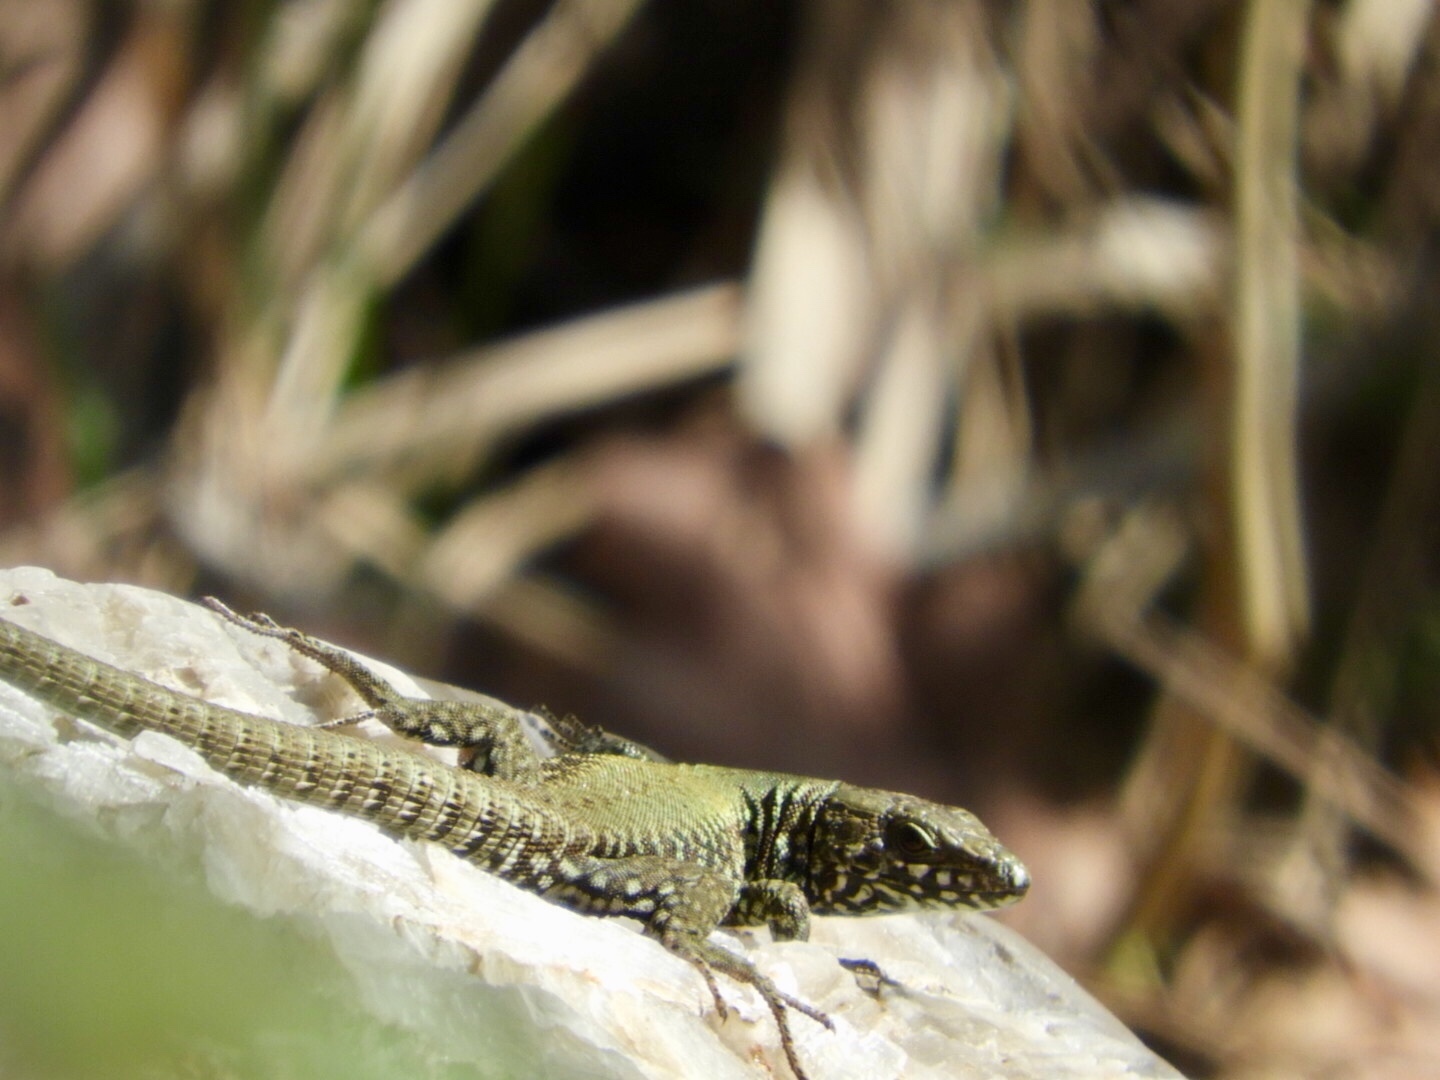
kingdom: Animalia
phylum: Chordata
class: Squamata
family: Lacertidae
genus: Podarcis
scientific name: Podarcis muralis
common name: Common wall lizard
